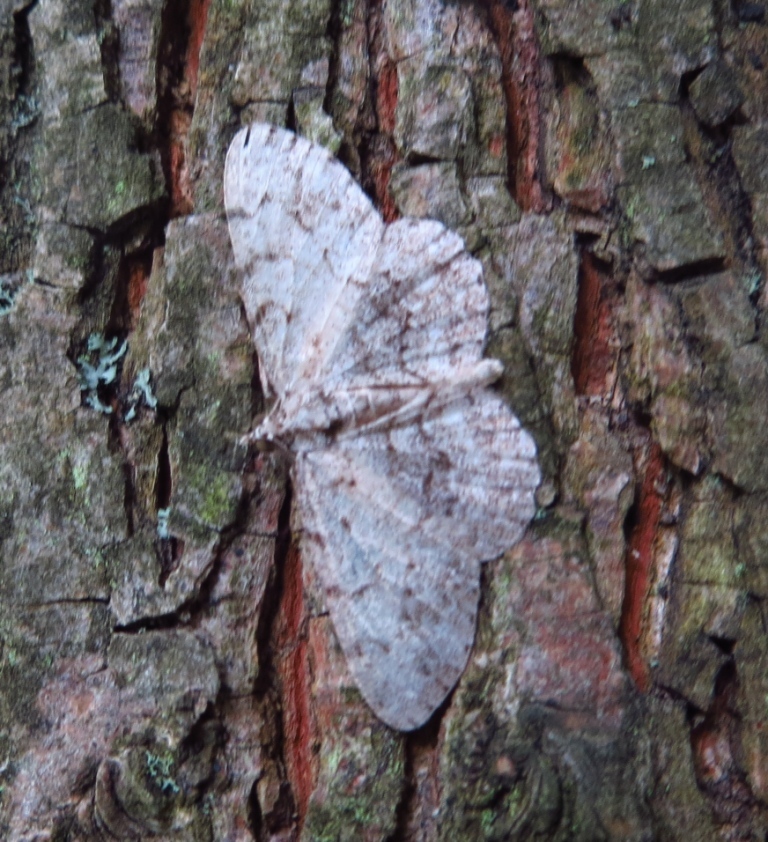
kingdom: Animalia
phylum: Arthropoda
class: Insecta
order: Lepidoptera
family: Geometridae
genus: Protoboarmia
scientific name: Protoboarmia porcelaria
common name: Porcelain gray
